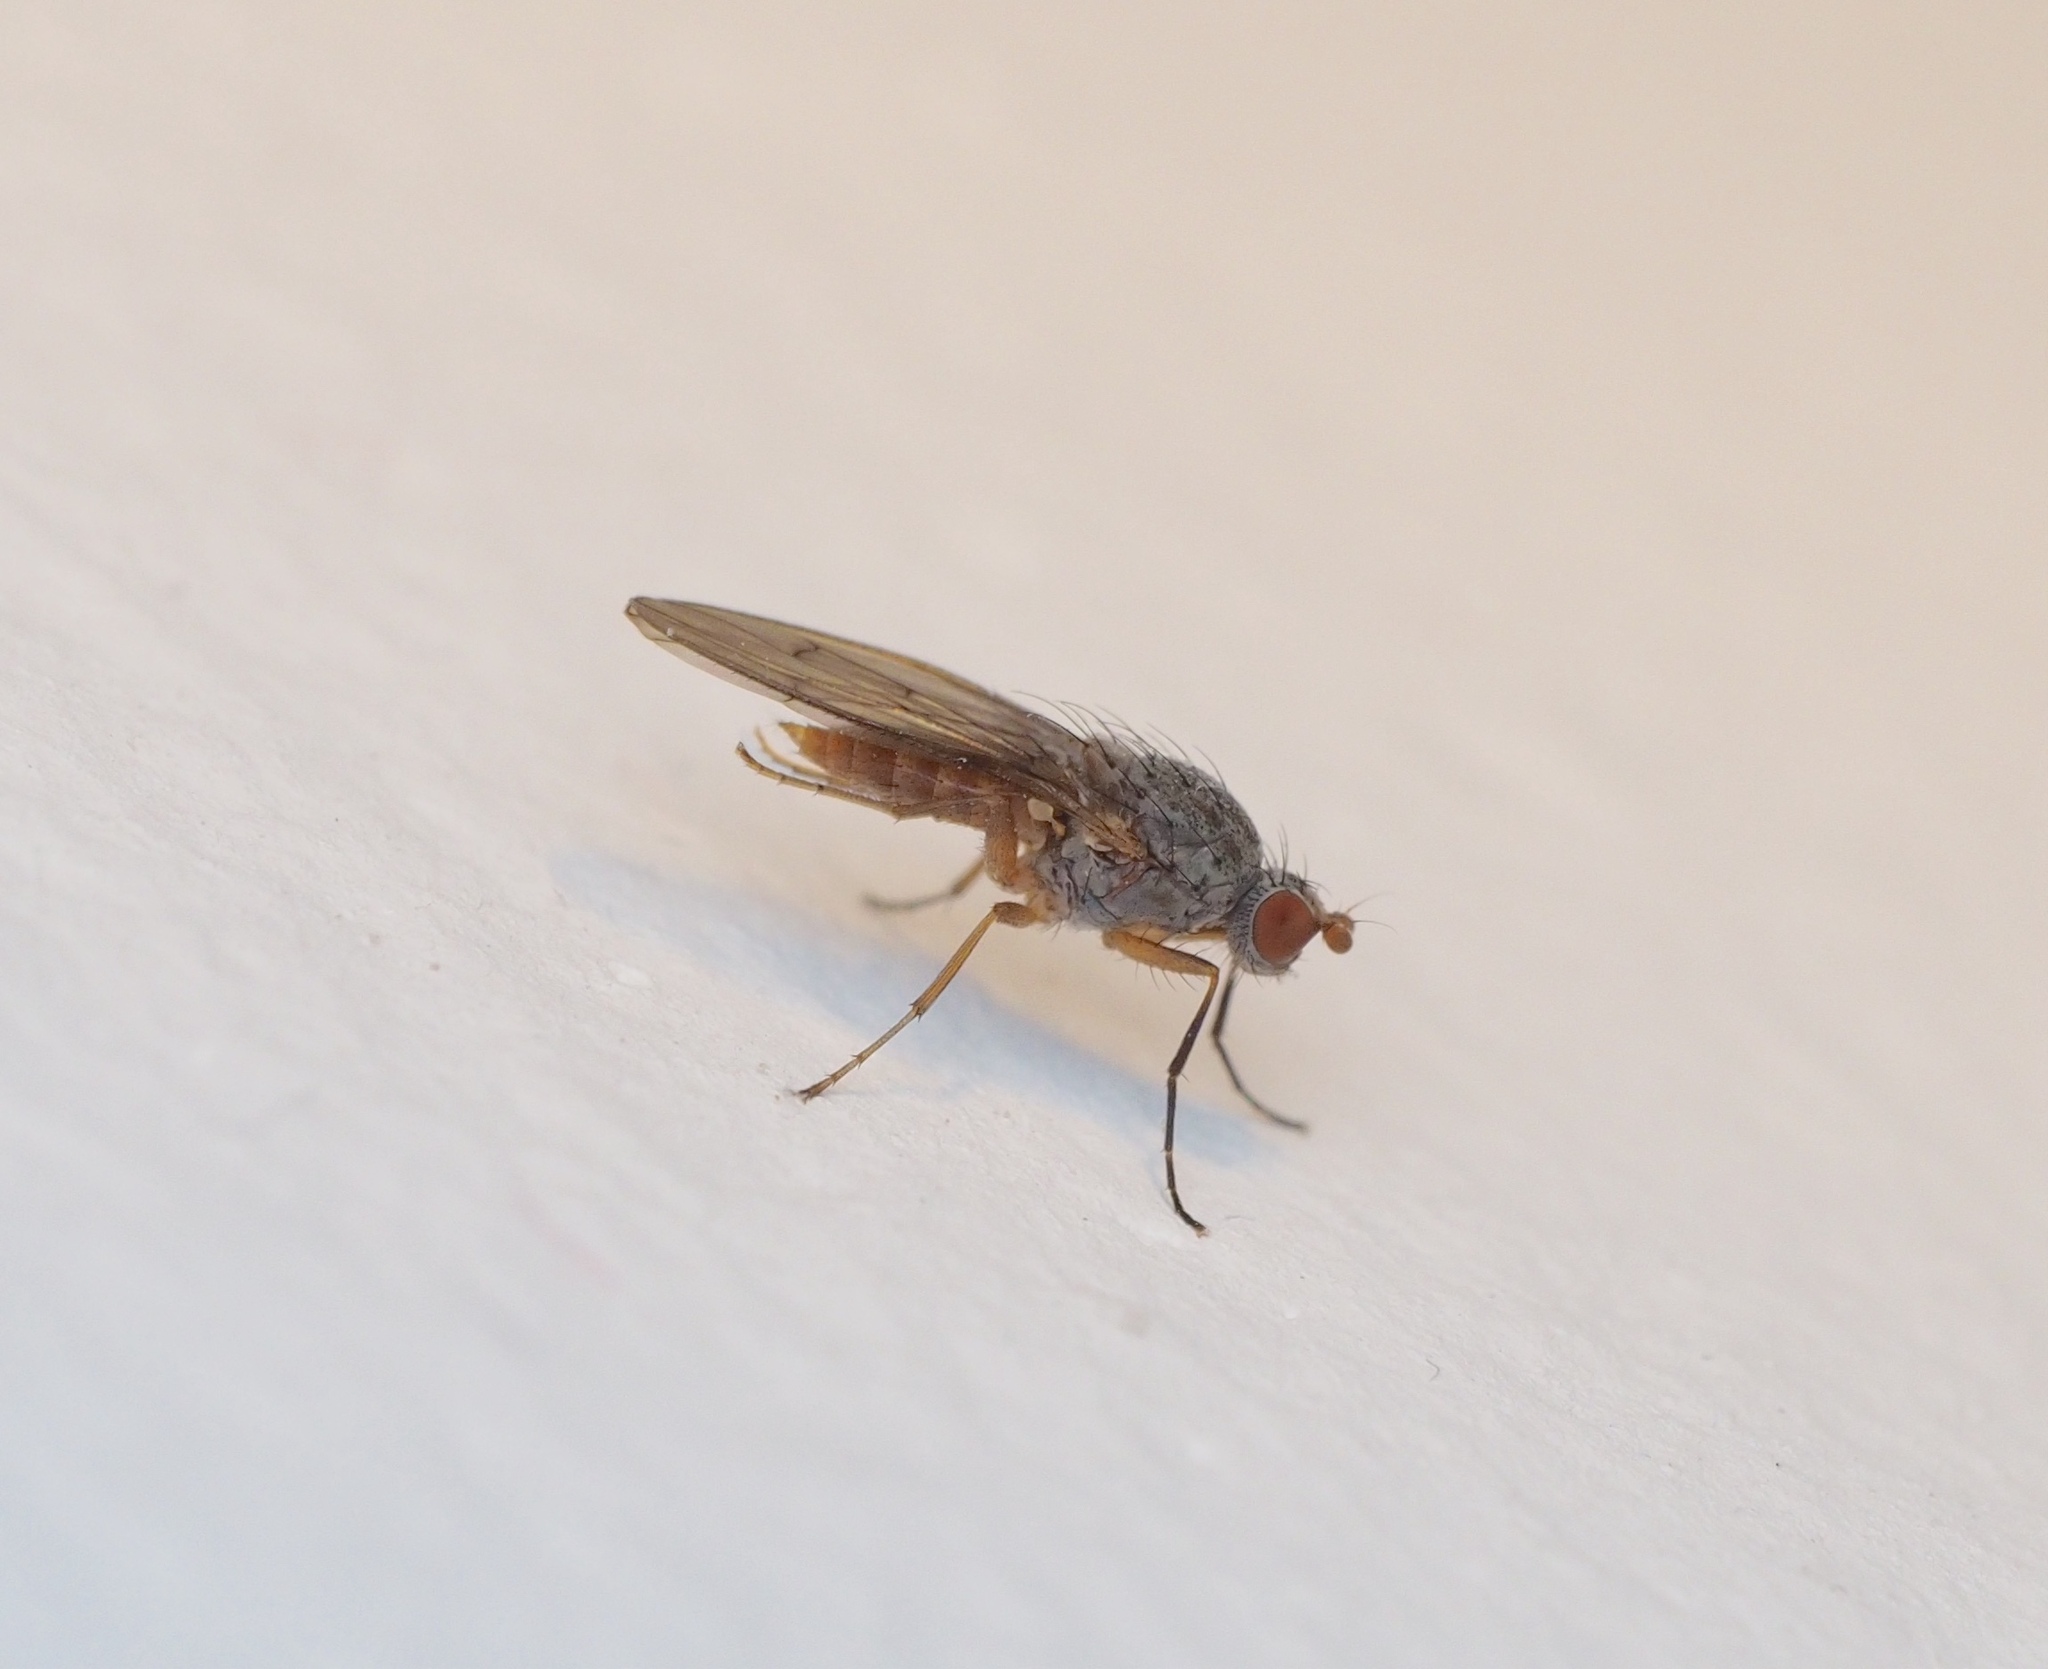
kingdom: Animalia
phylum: Arthropoda
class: Insecta
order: Diptera
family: Heleomyzidae
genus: Tephrochlamys
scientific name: Tephrochlamys tarsalis
